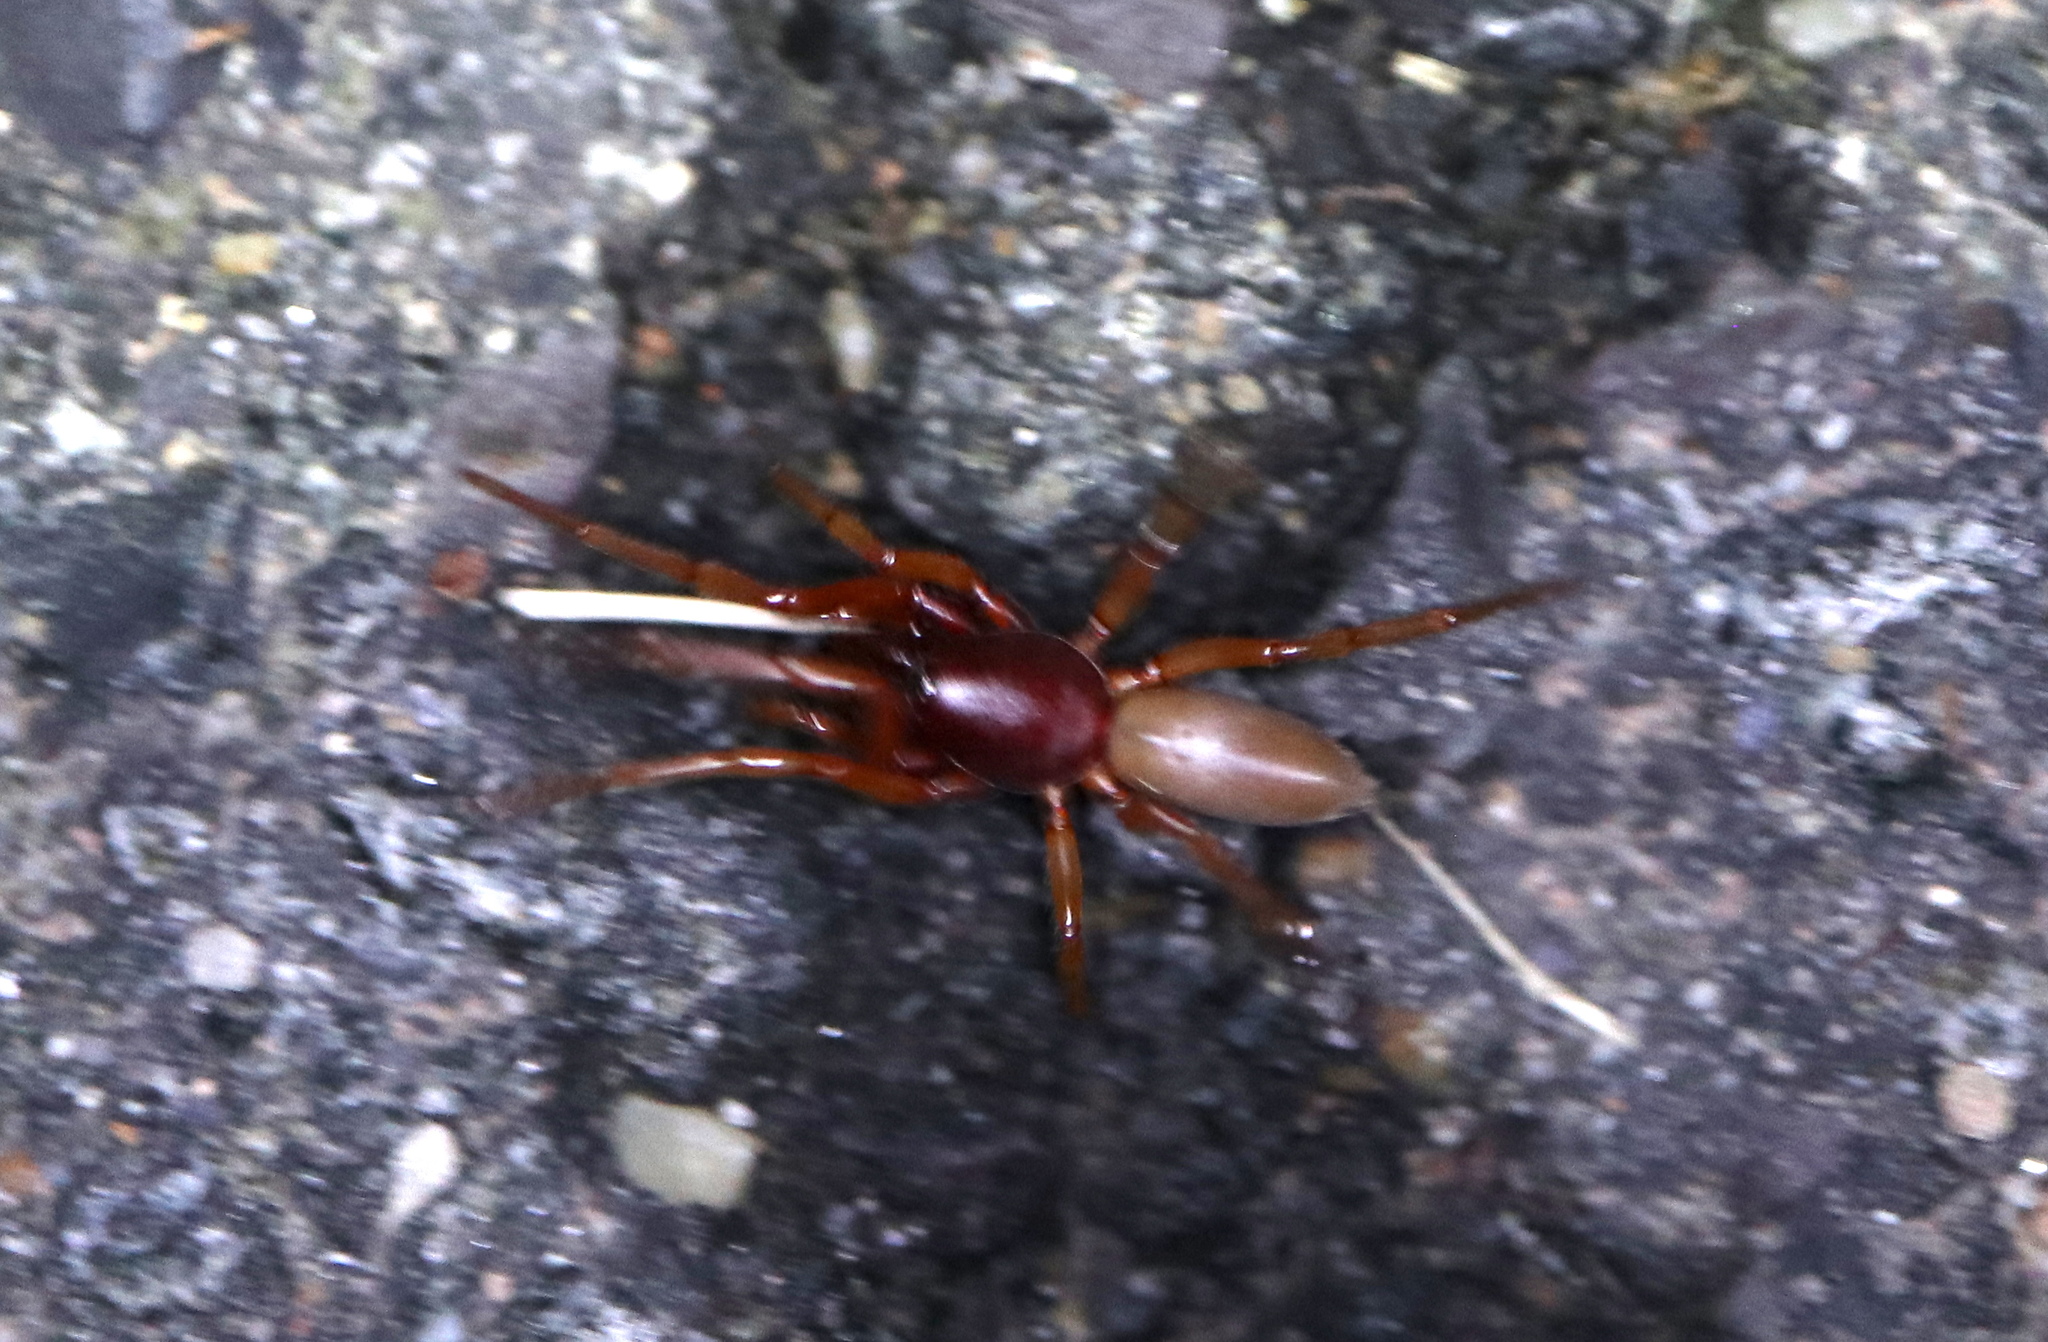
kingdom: Animalia
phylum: Arthropoda
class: Arachnida
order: Araneae
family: Dysderidae
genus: Dysdera
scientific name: Dysdera crocata
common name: Woodlouse spider
